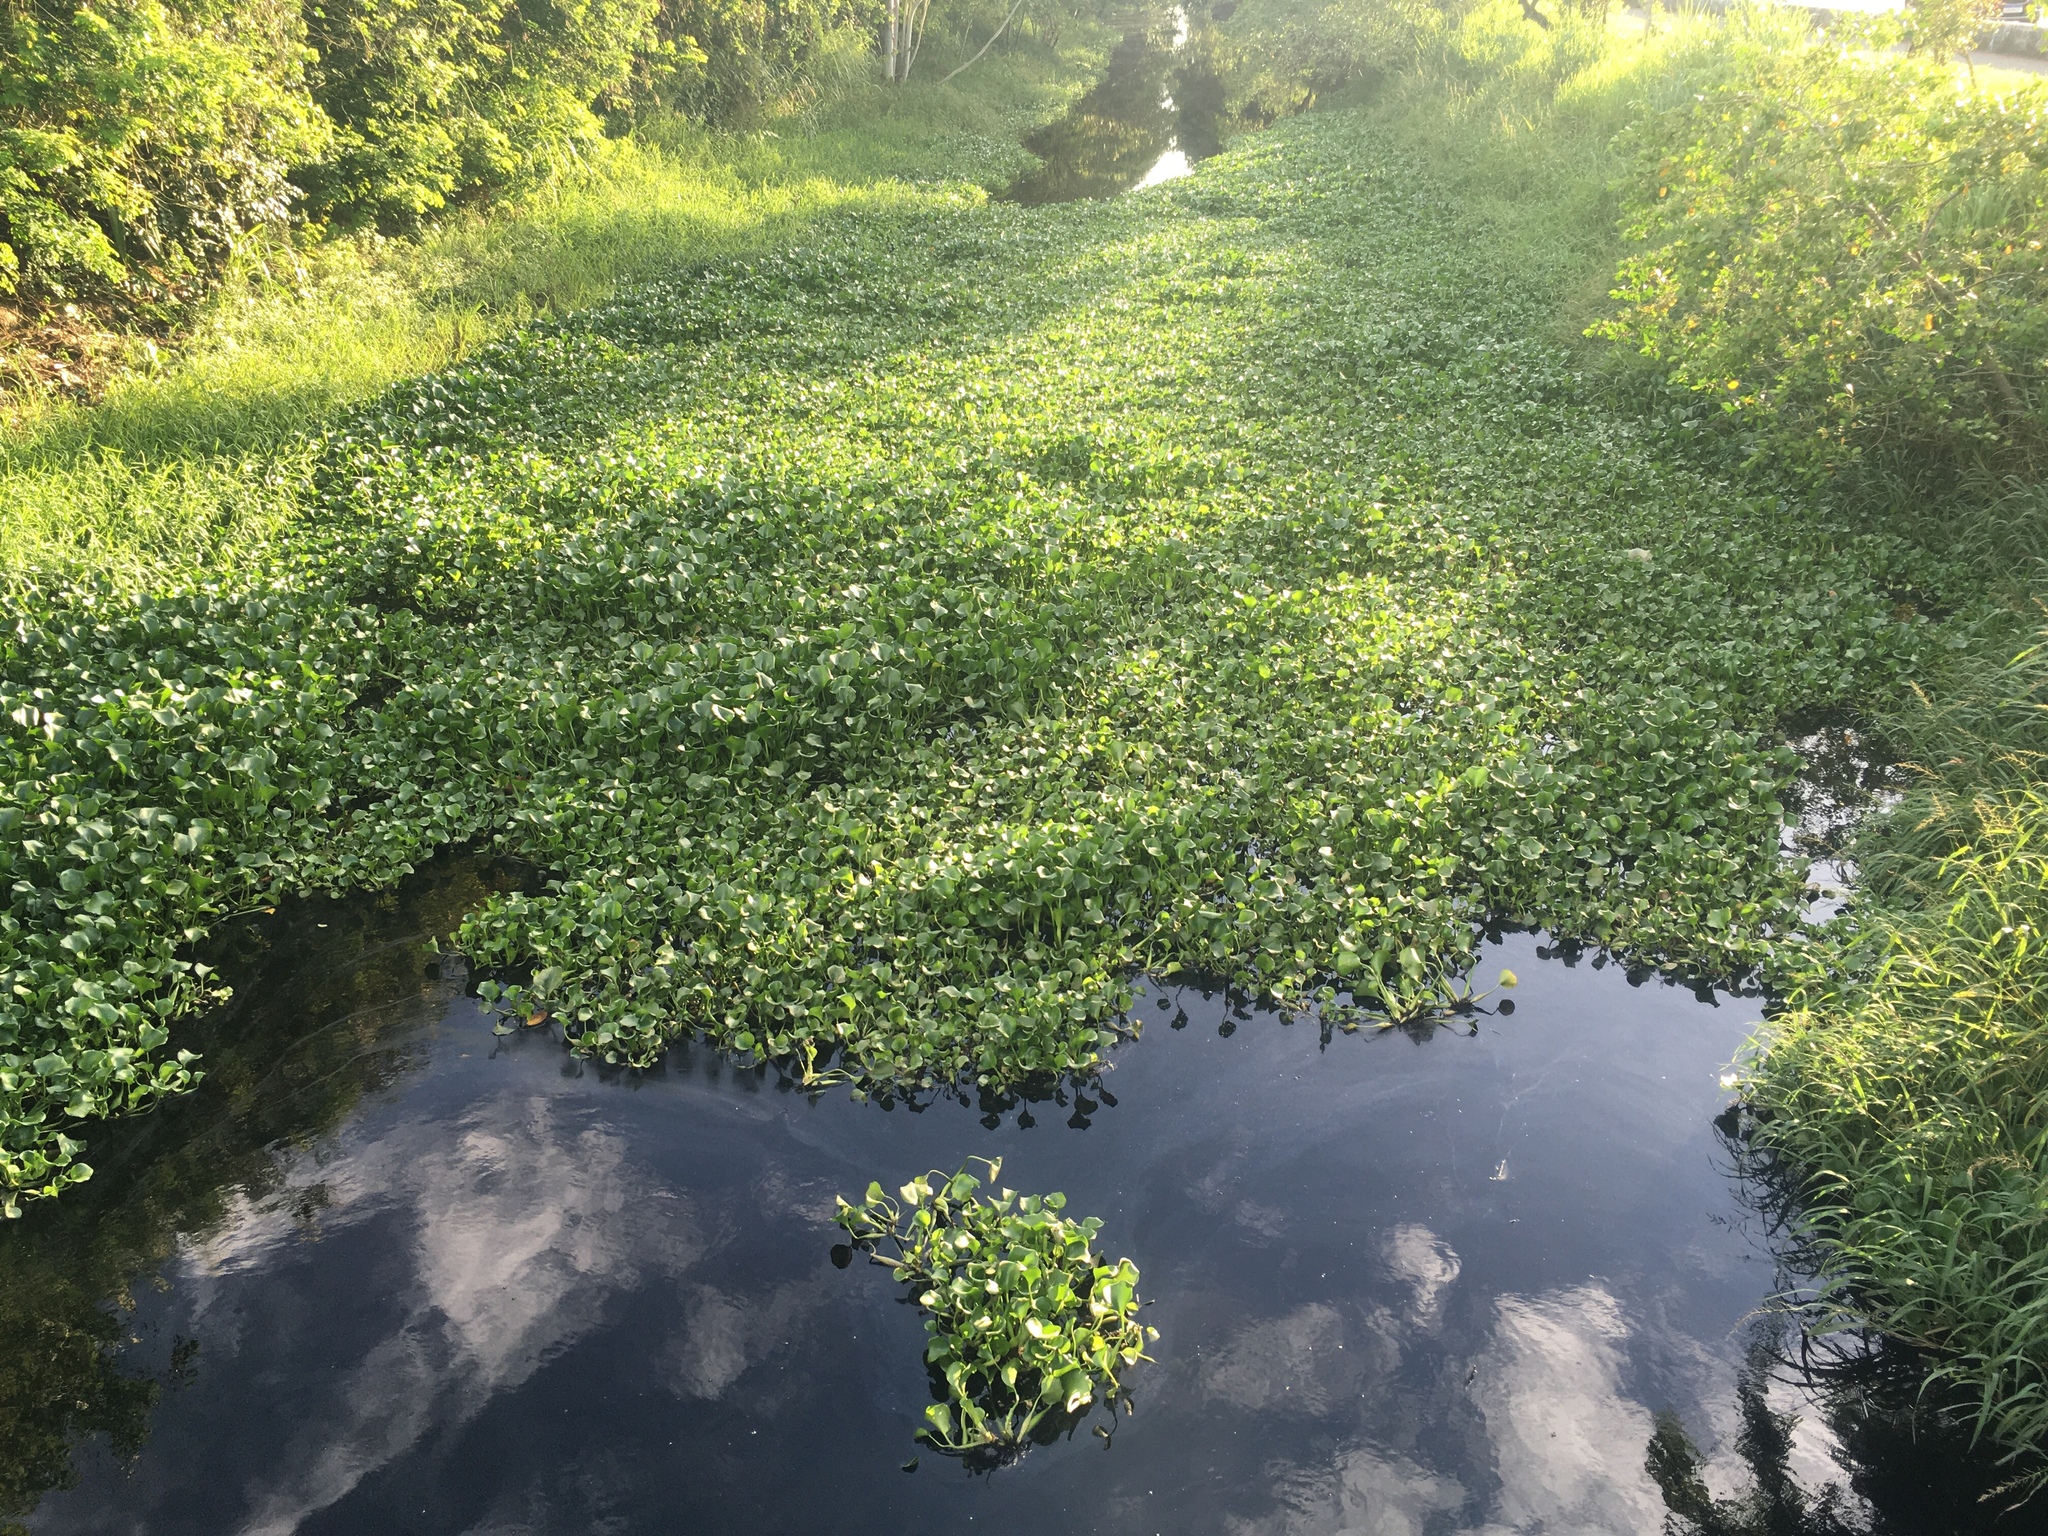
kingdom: Plantae
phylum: Tracheophyta
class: Liliopsida
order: Commelinales
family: Pontederiaceae
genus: Pontederia
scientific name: Pontederia crassipes
